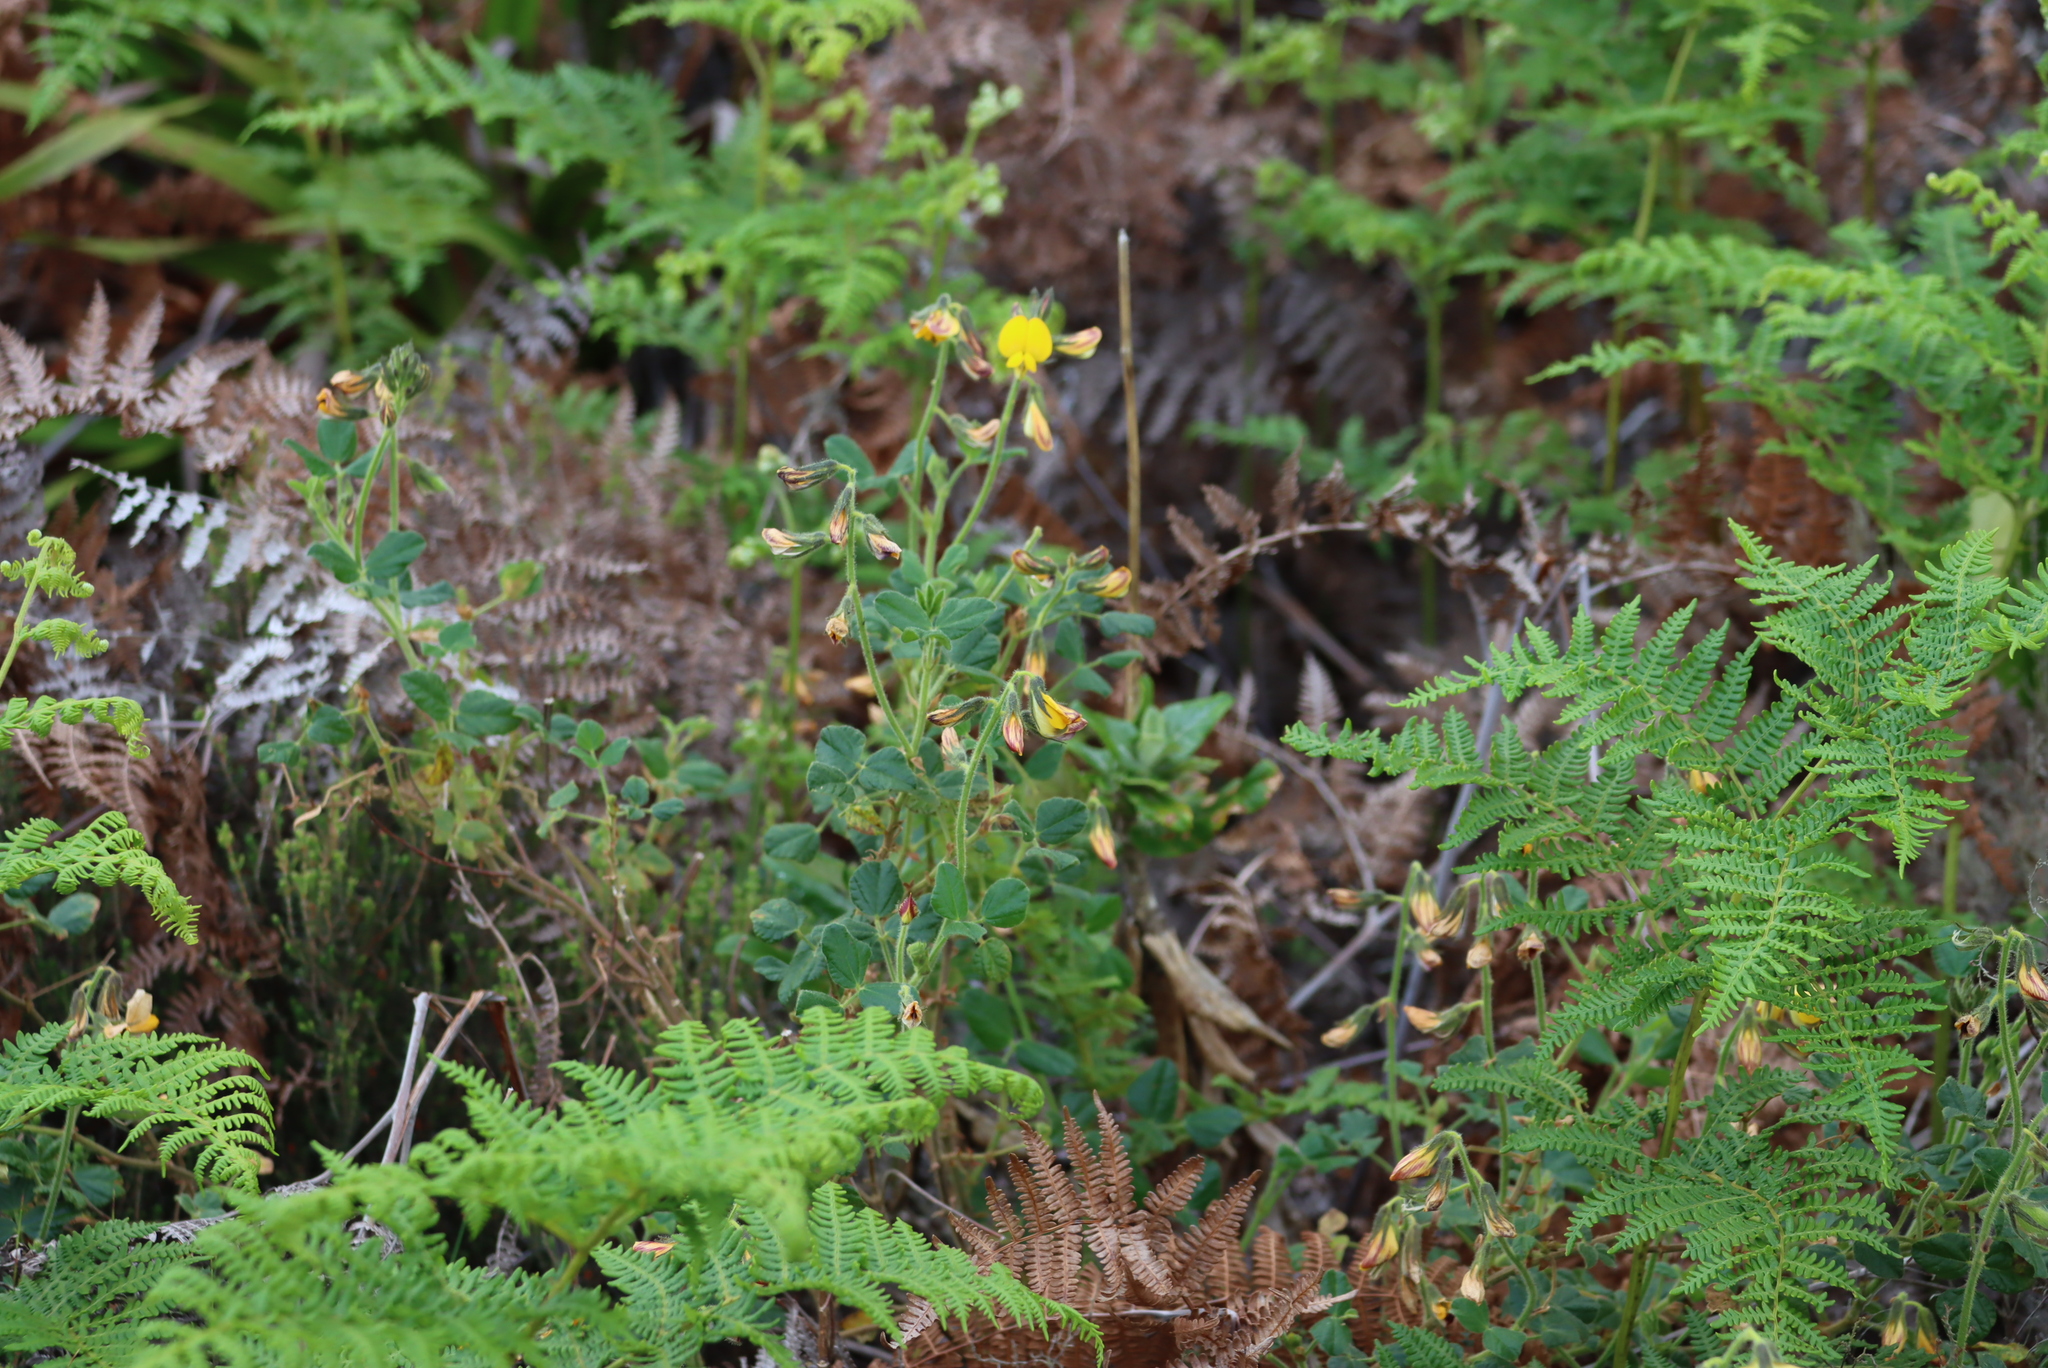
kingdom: Plantae
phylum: Tracheophyta
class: Magnoliopsida
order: Fabales
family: Fabaceae
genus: Bolusafra
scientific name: Bolusafra bituminosa
